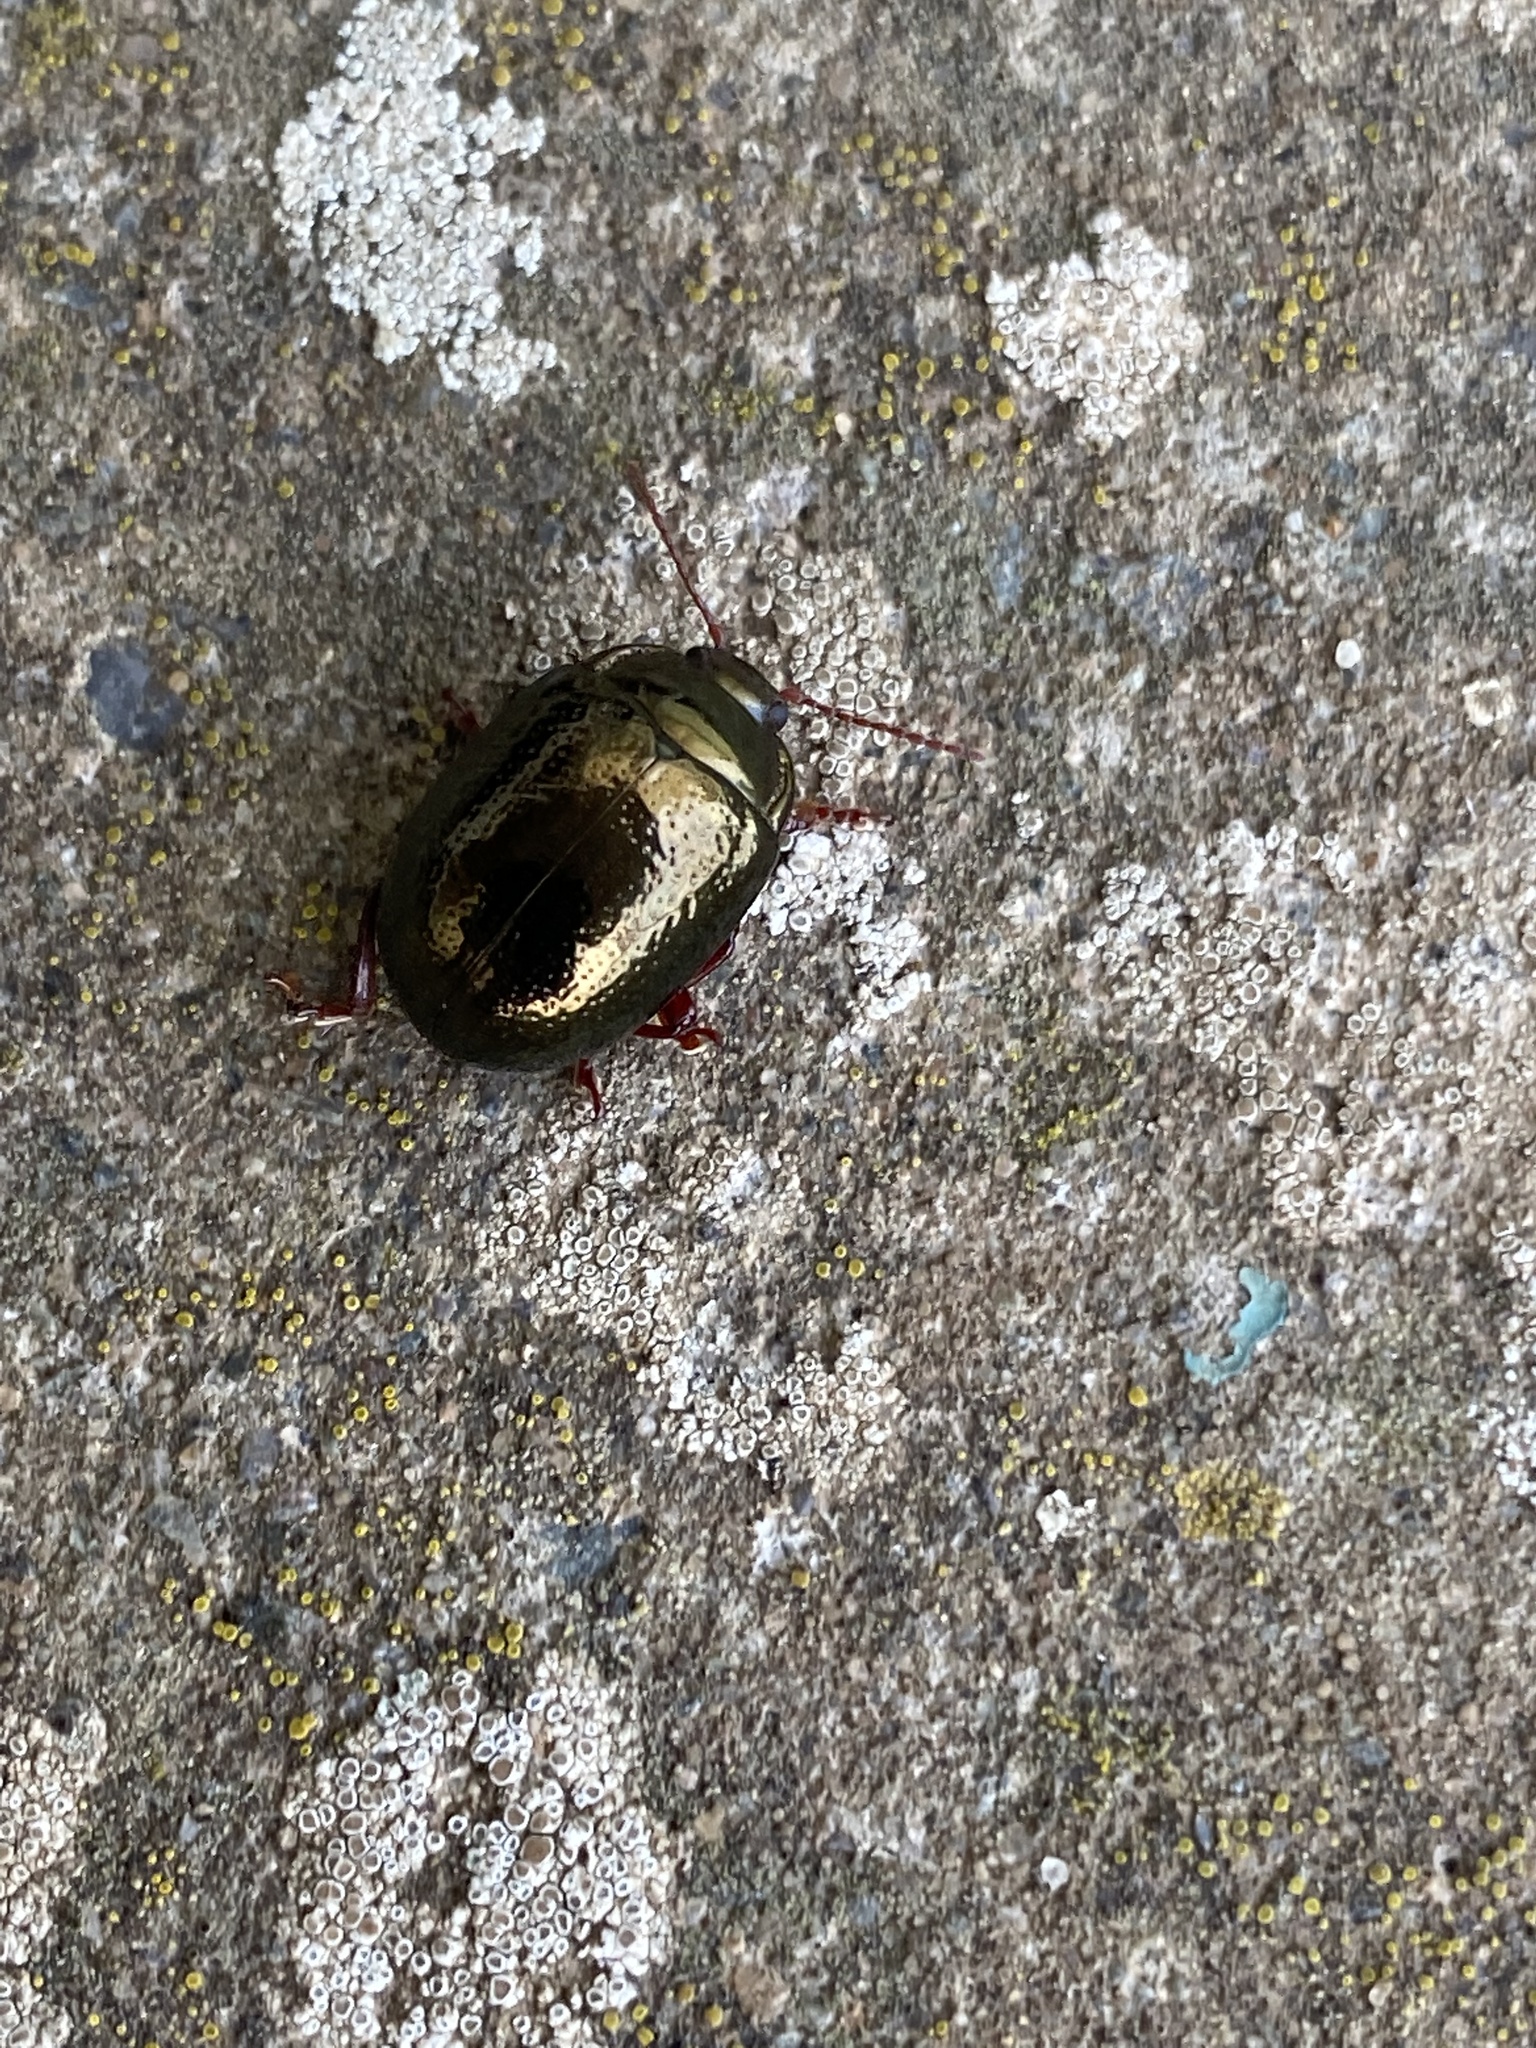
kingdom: Animalia
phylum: Arthropoda
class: Insecta
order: Coleoptera
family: Chrysomelidae
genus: Chrysolina
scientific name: Chrysolina bankii
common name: Leaf beetle
